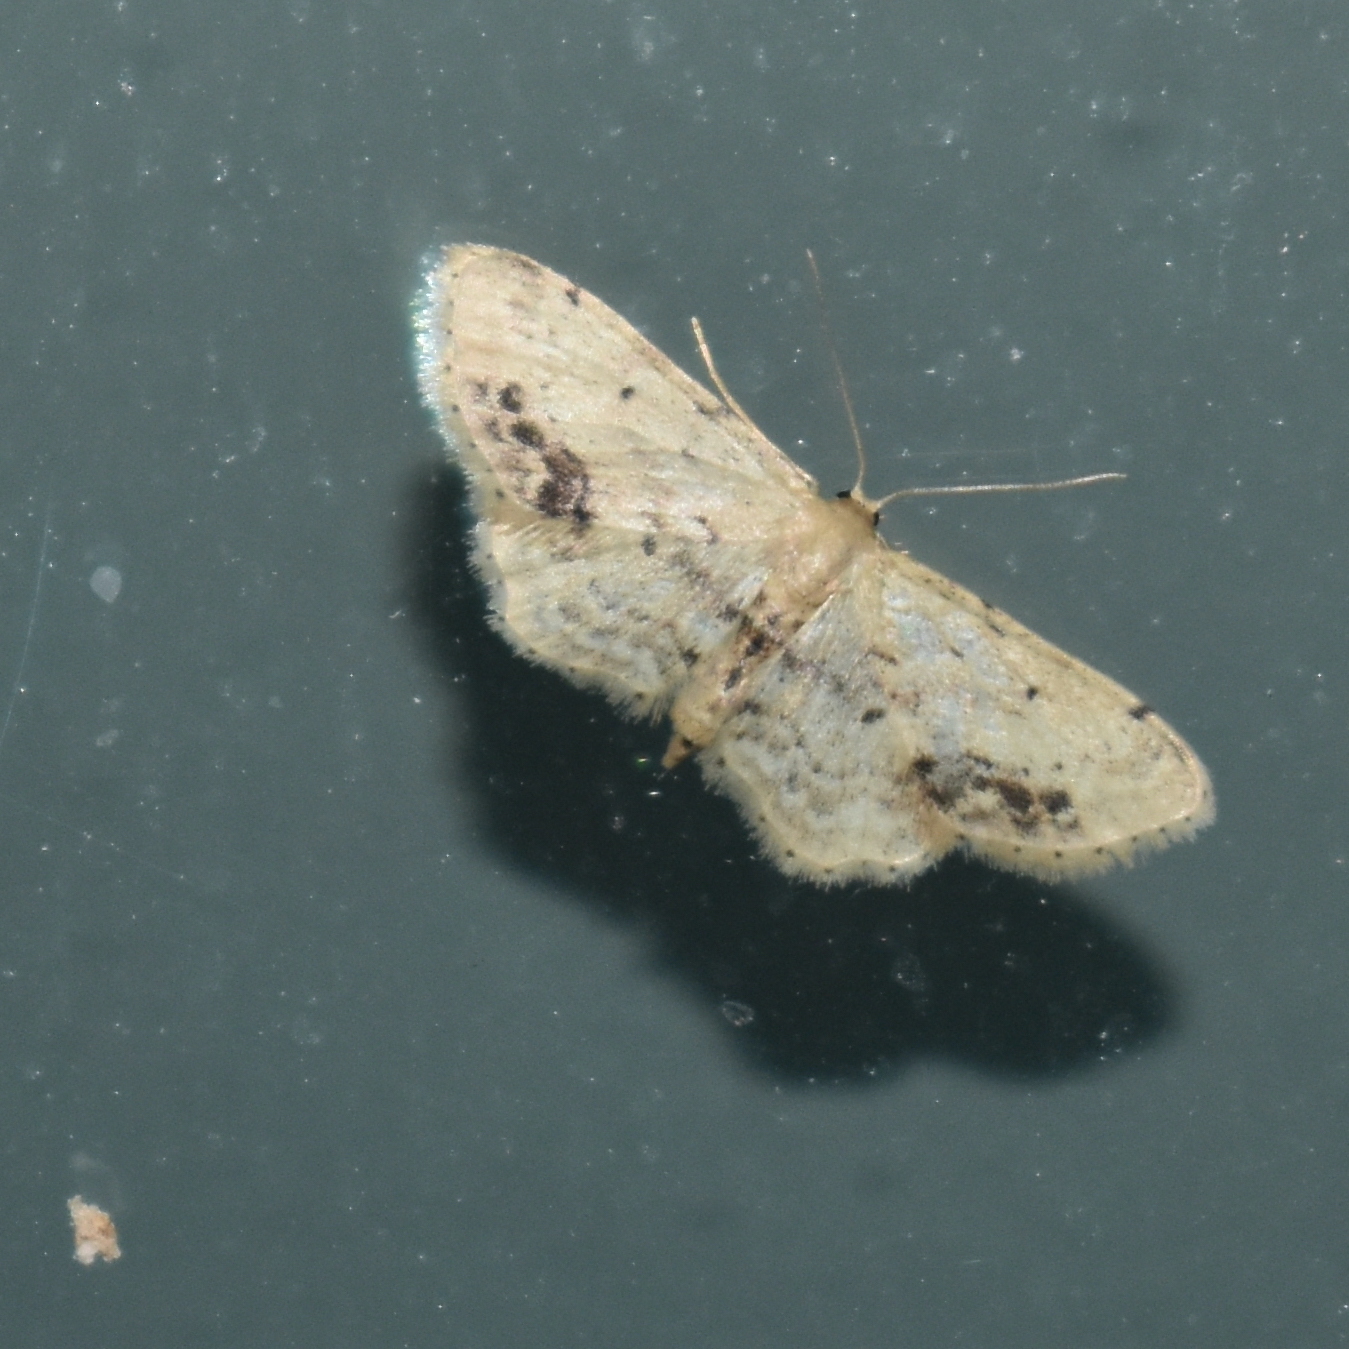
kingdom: Animalia
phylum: Arthropoda
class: Insecta
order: Lepidoptera
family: Geometridae
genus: Idaea
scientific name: Idaea dimidiata
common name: Single-dotted wave
